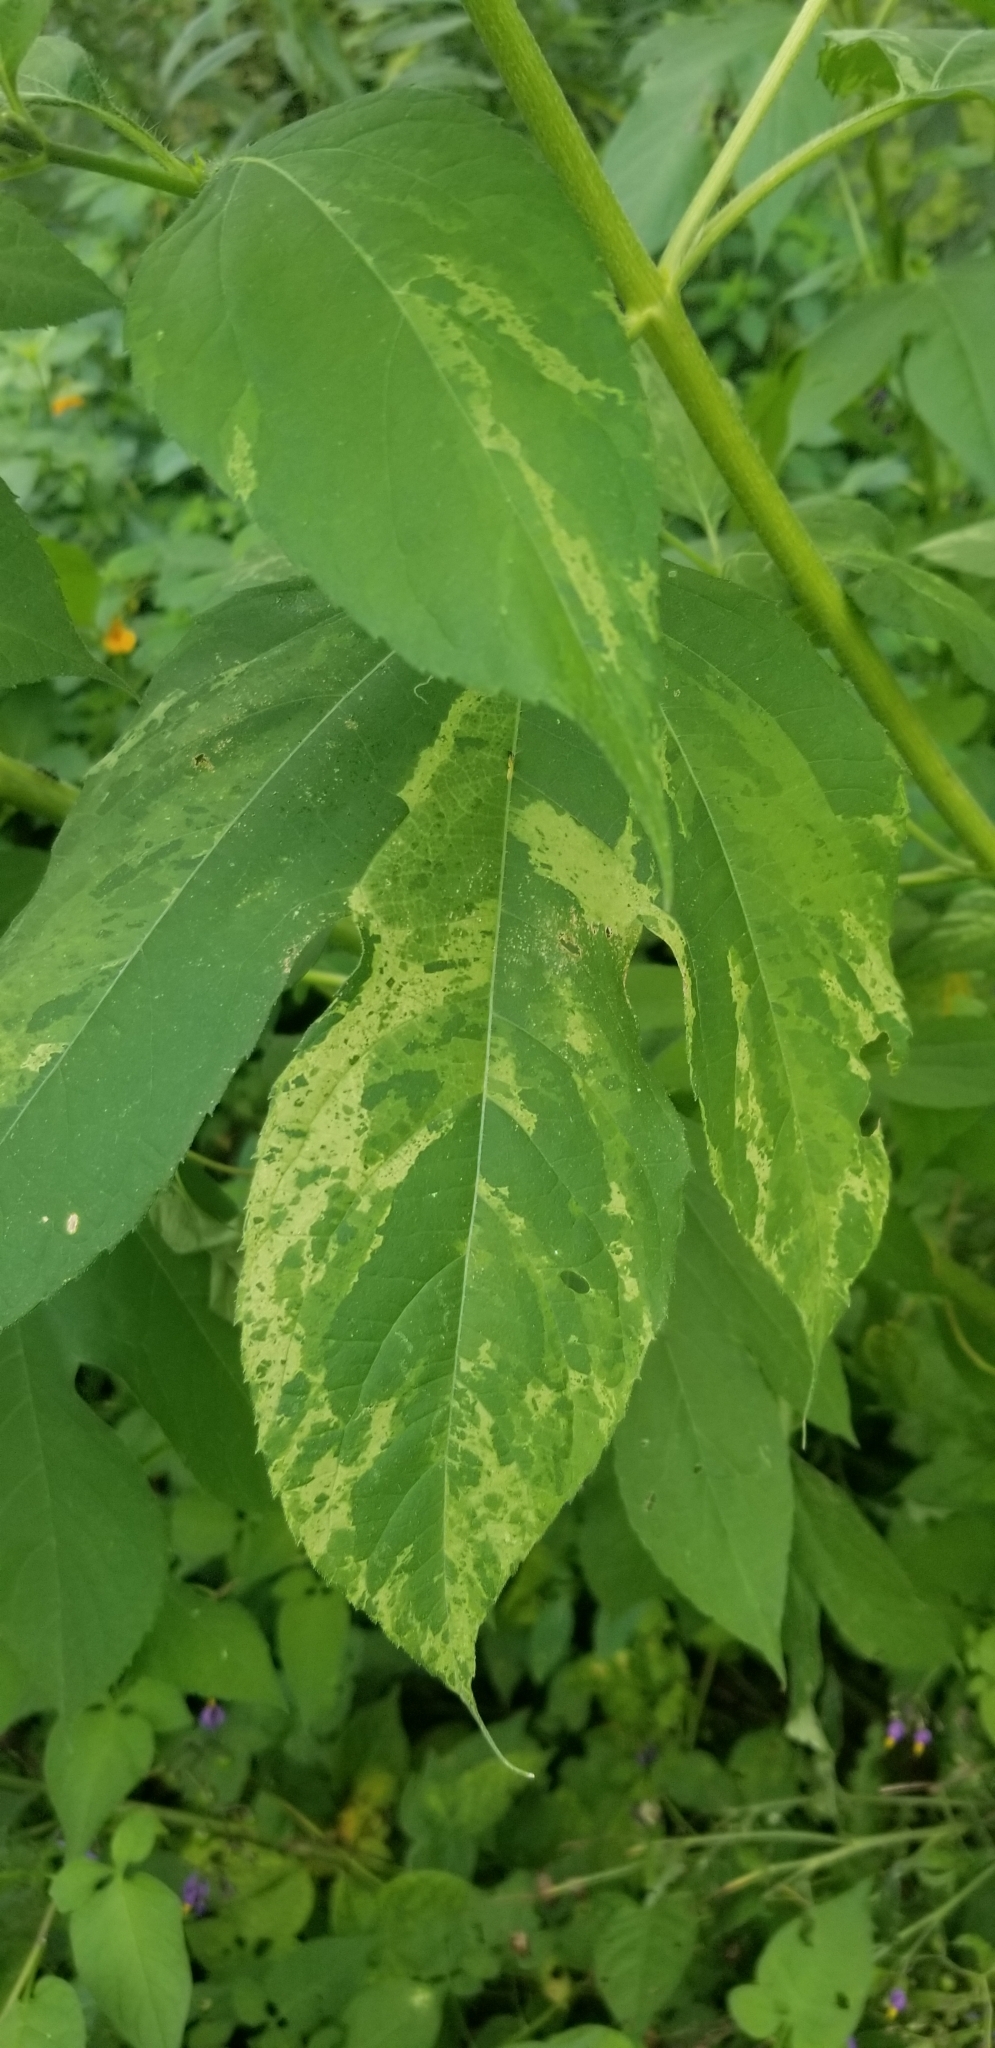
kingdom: Plantae
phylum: Tracheophyta
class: Magnoliopsida
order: Asterales
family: Asteraceae
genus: Ambrosia
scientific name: Ambrosia trifida
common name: Giant ragweed
